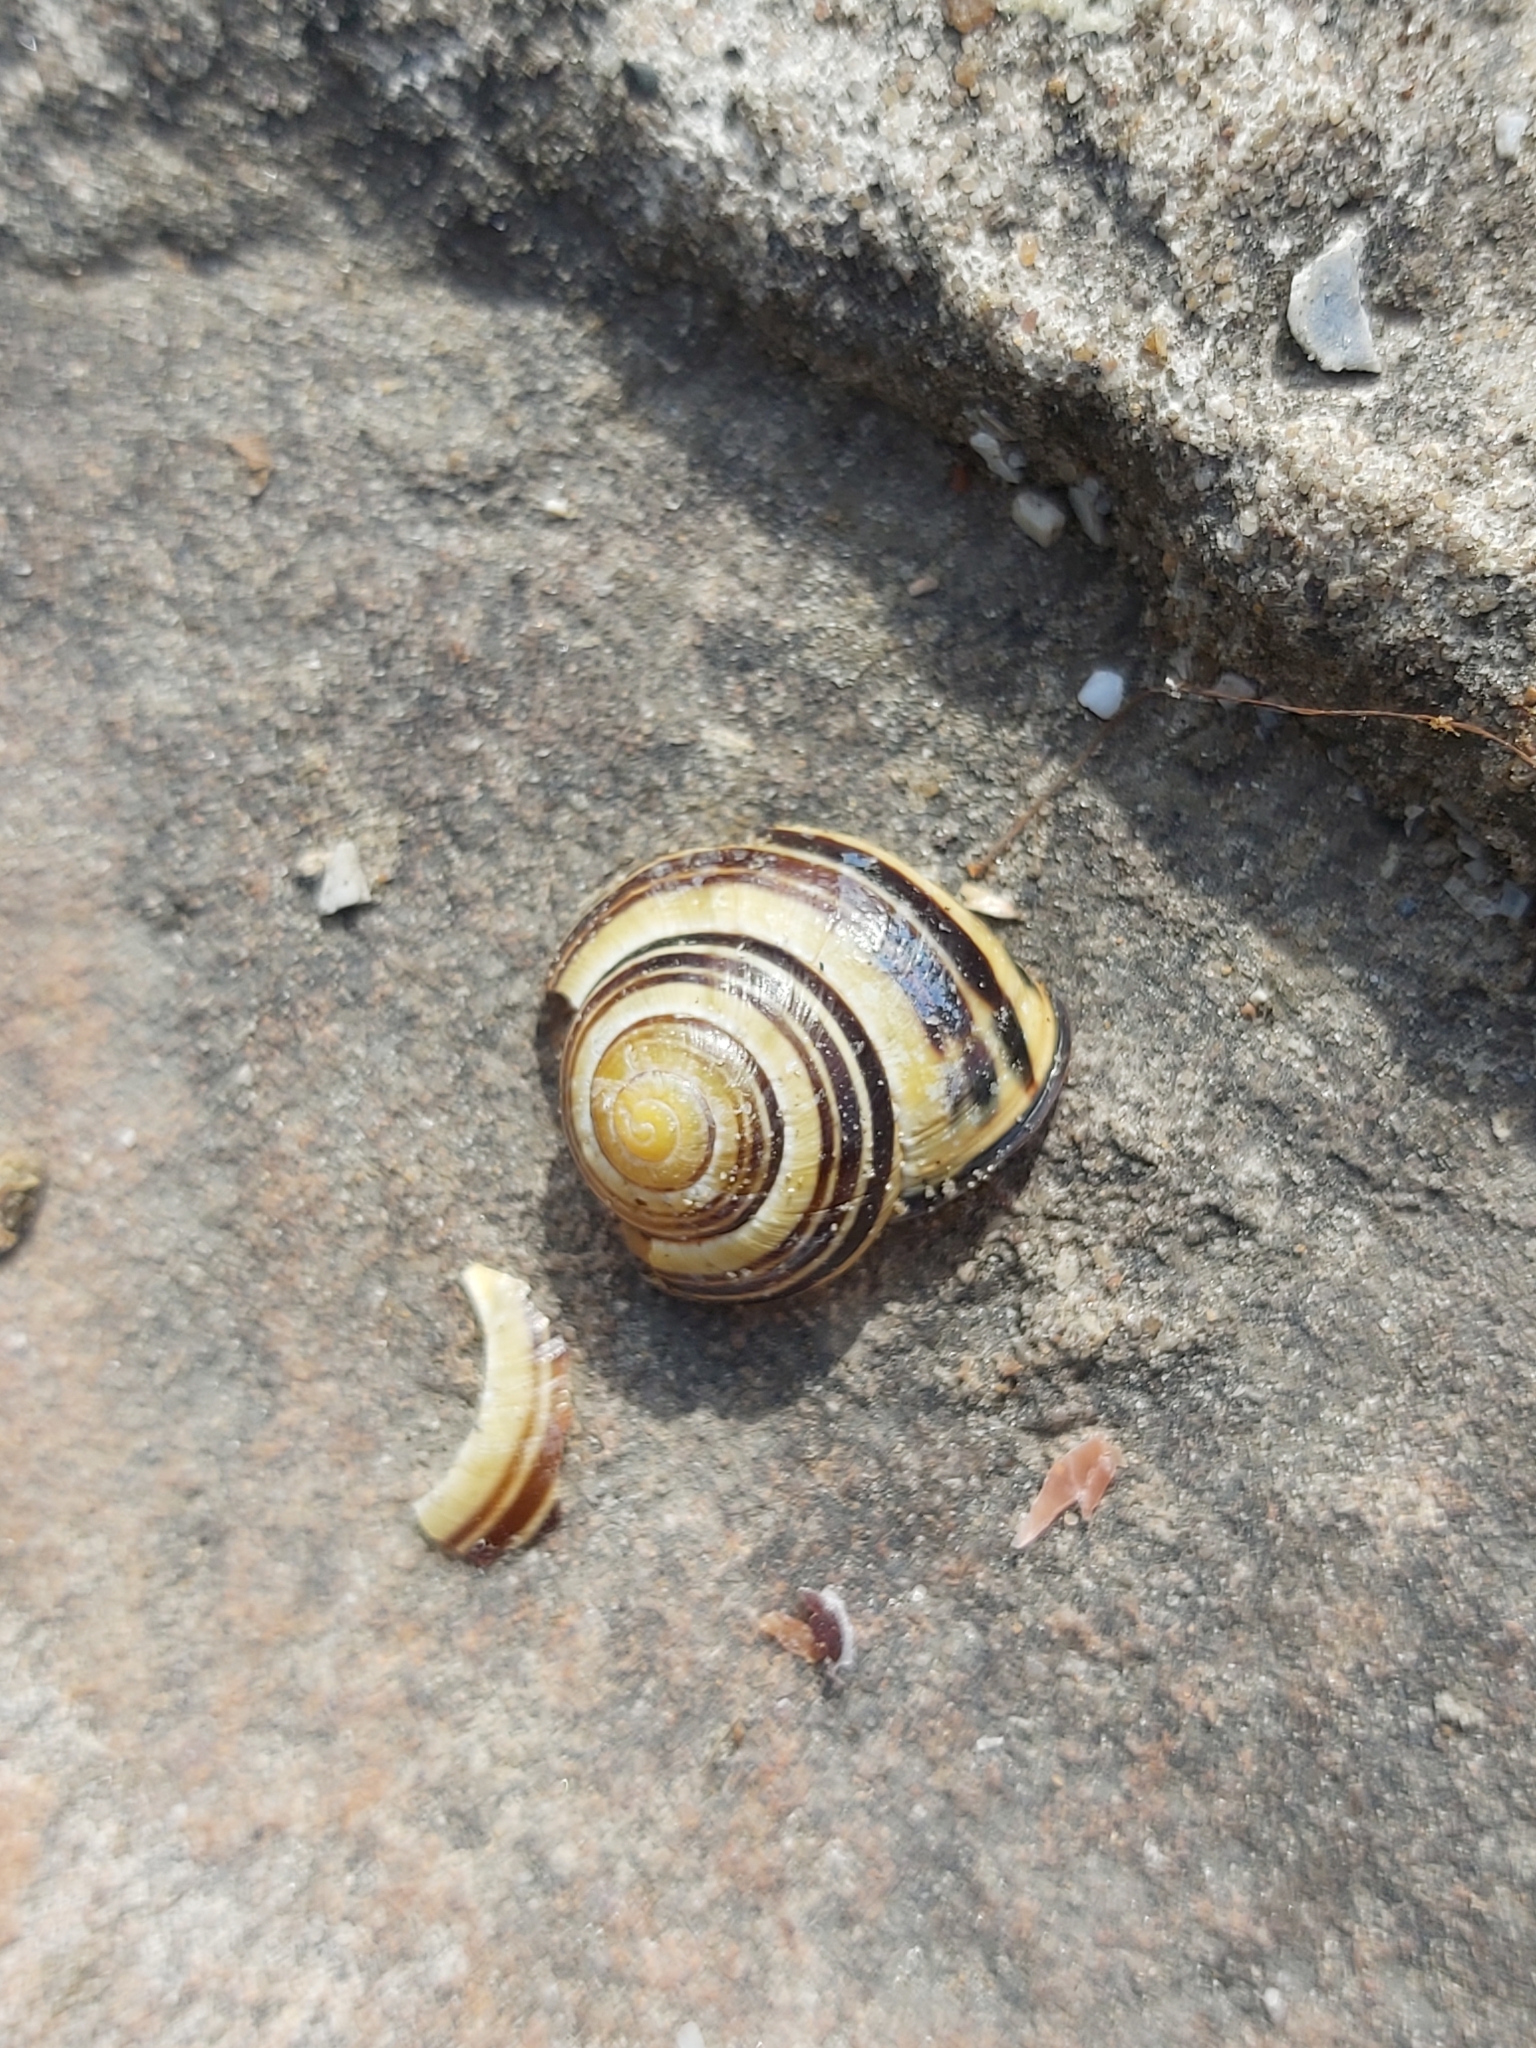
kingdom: Animalia
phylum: Mollusca
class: Gastropoda
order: Stylommatophora
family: Helicidae
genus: Cepaea
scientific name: Cepaea nemoralis
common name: Grovesnail
